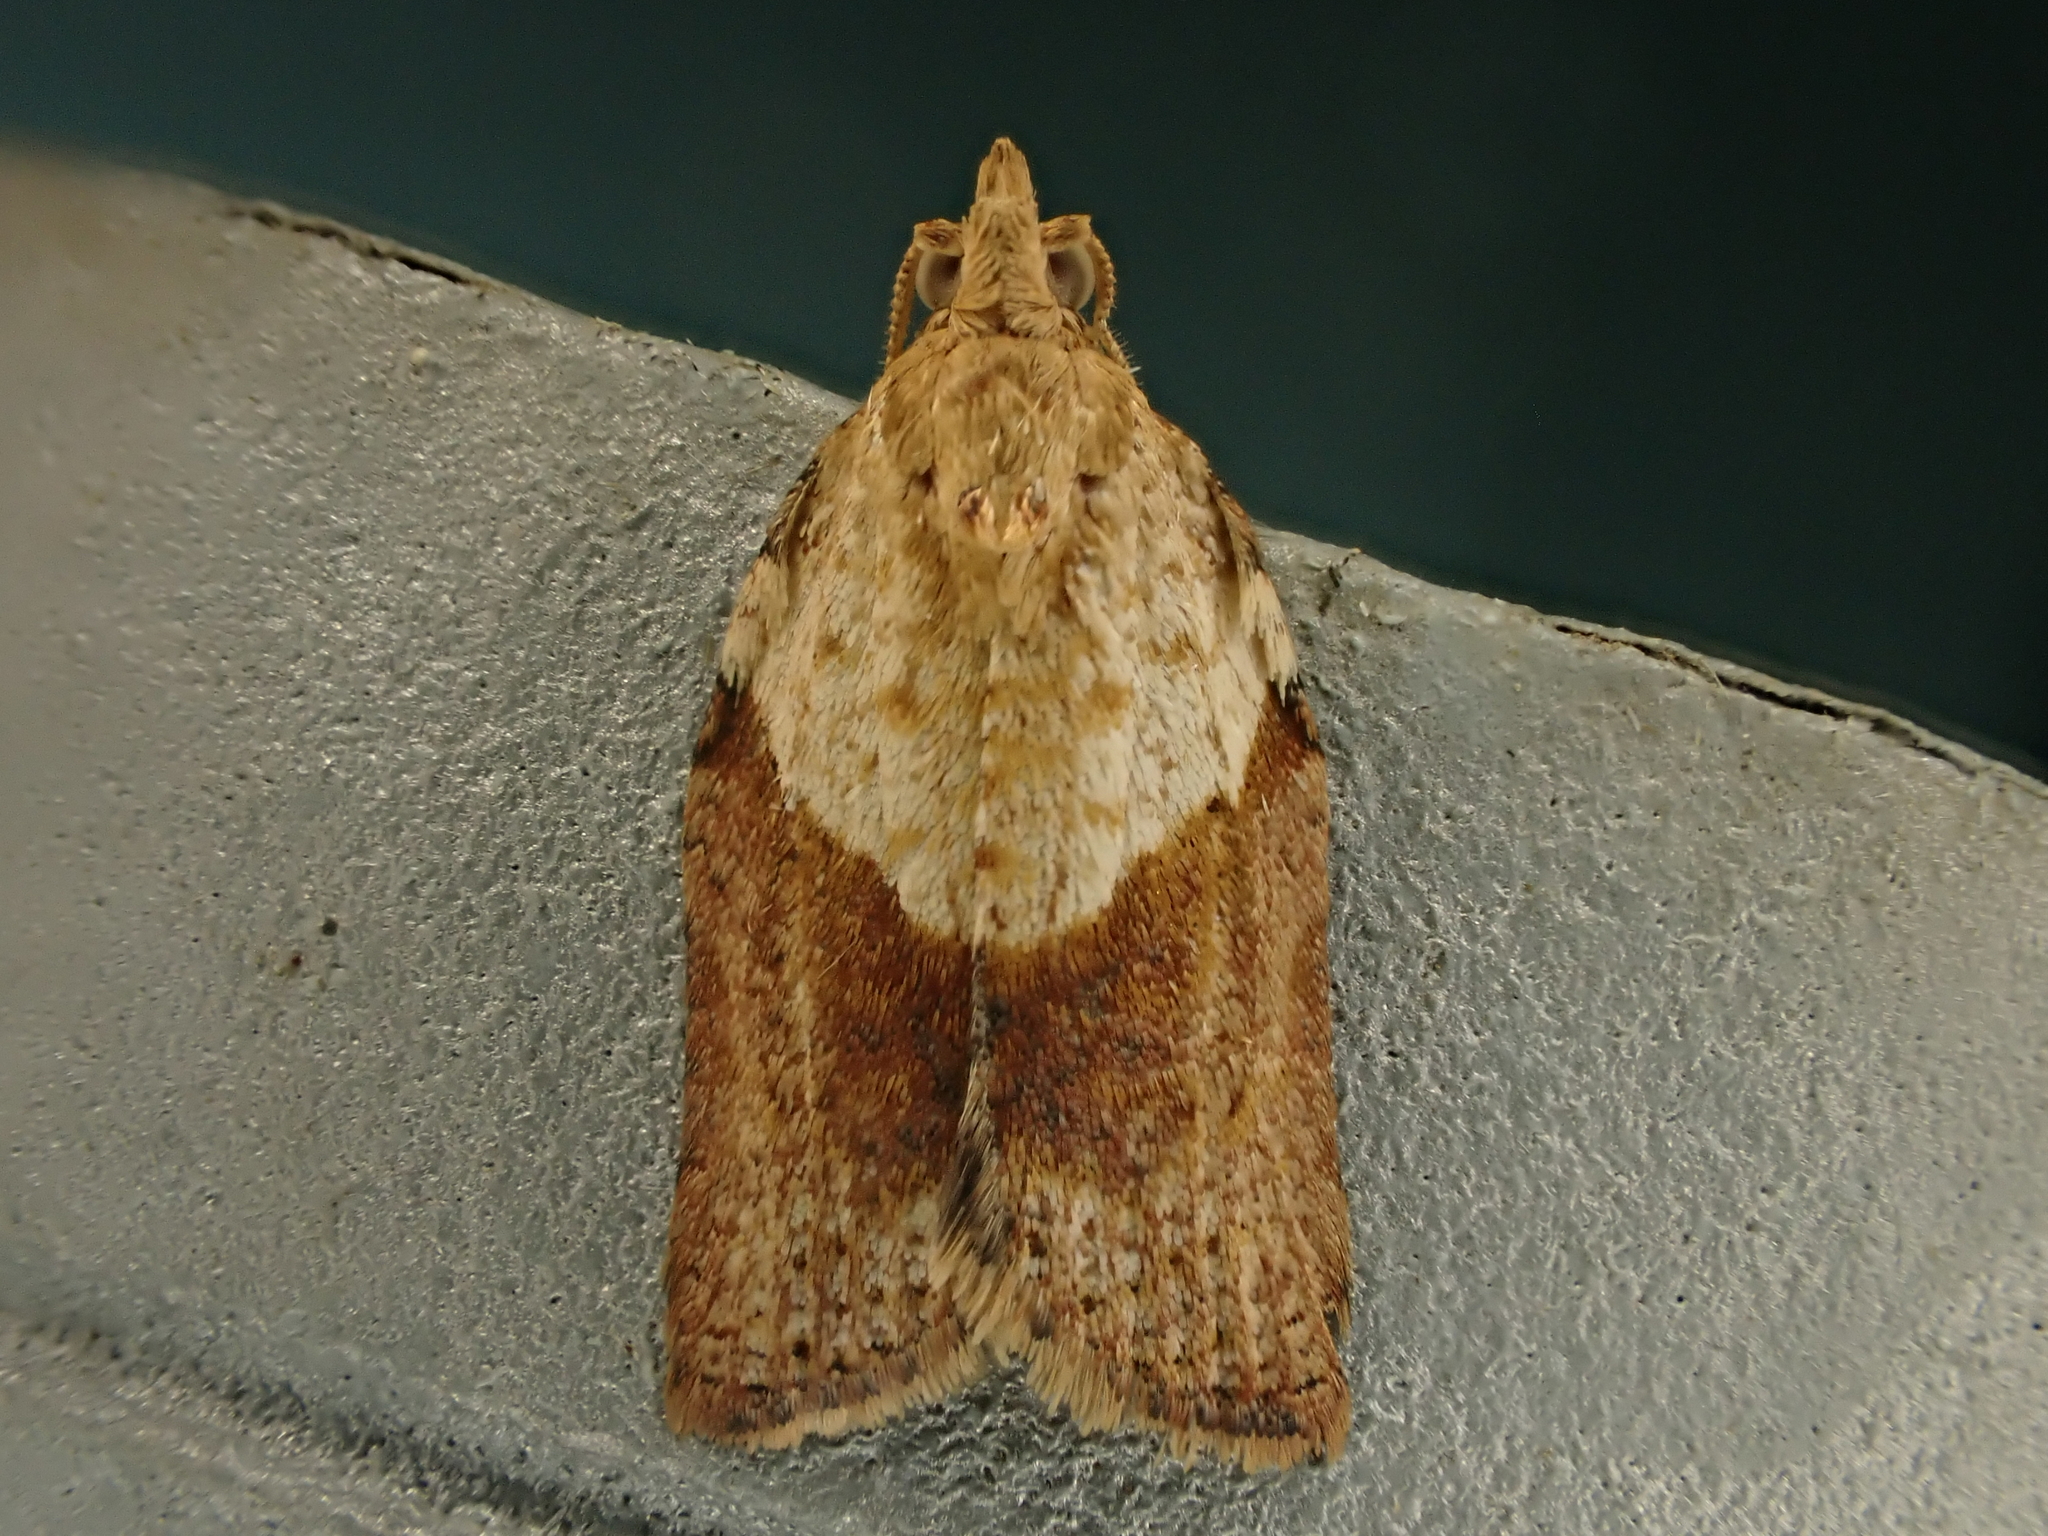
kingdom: Animalia
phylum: Arthropoda
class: Insecta
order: Lepidoptera
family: Tortricidae
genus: Epiphyas
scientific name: Epiphyas postvittana
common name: Light brown apple moth
